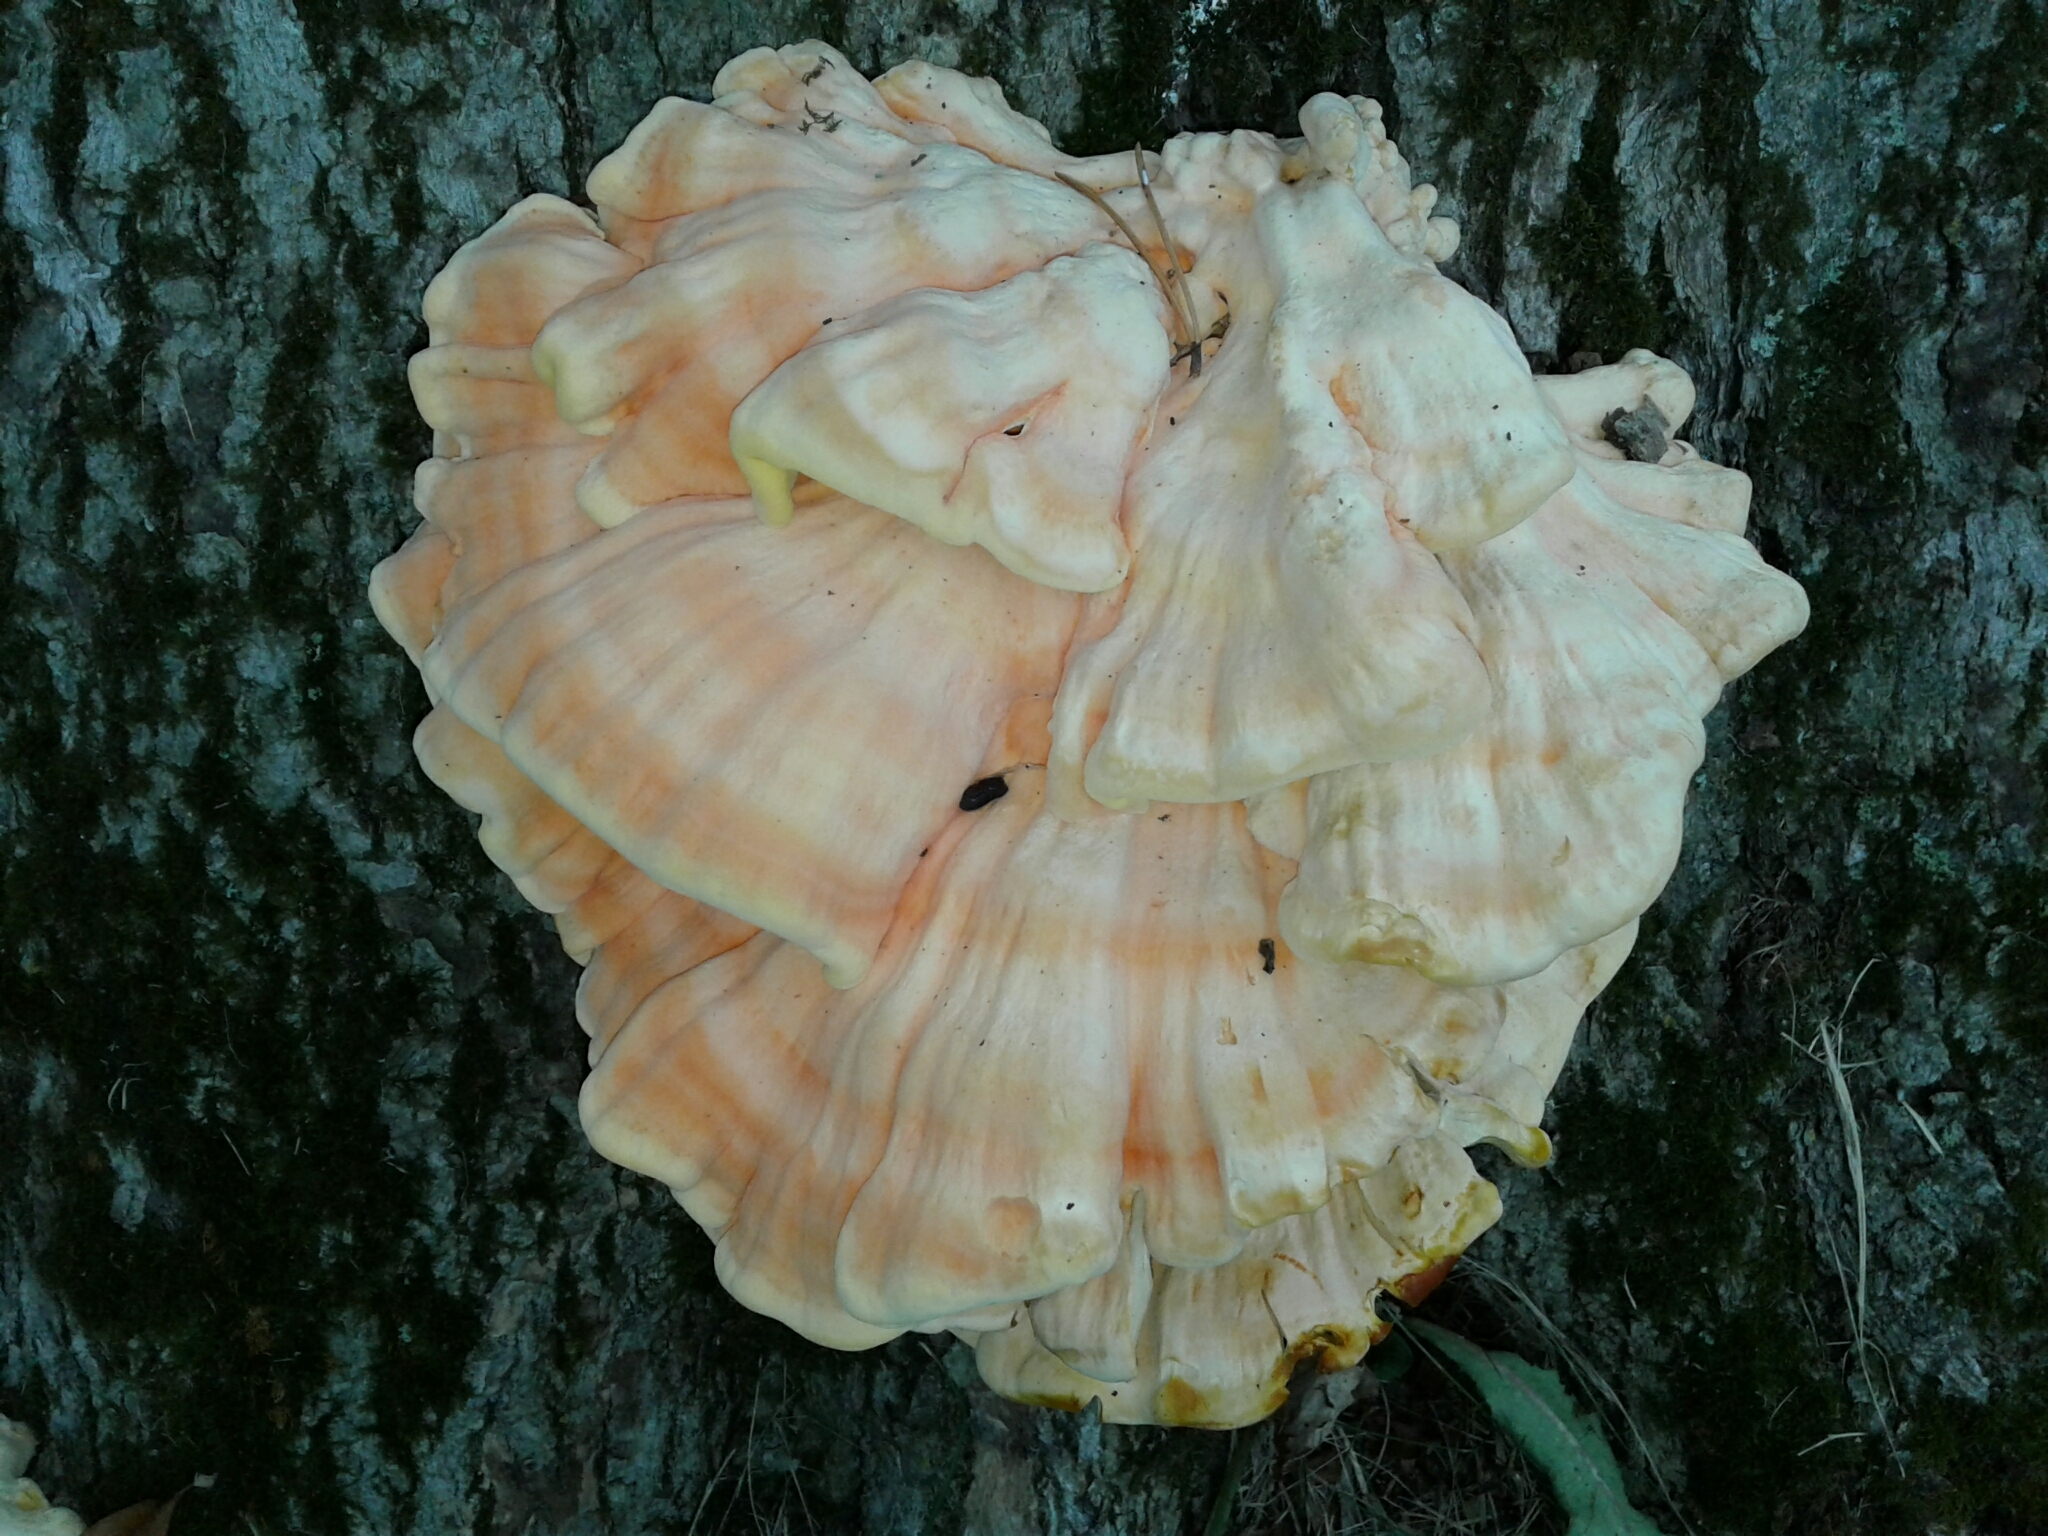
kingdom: Fungi
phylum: Basidiomycota
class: Agaricomycetes
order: Polyporales
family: Laetiporaceae
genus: Laetiporus
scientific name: Laetiporus sulphureus
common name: Chicken of the woods
